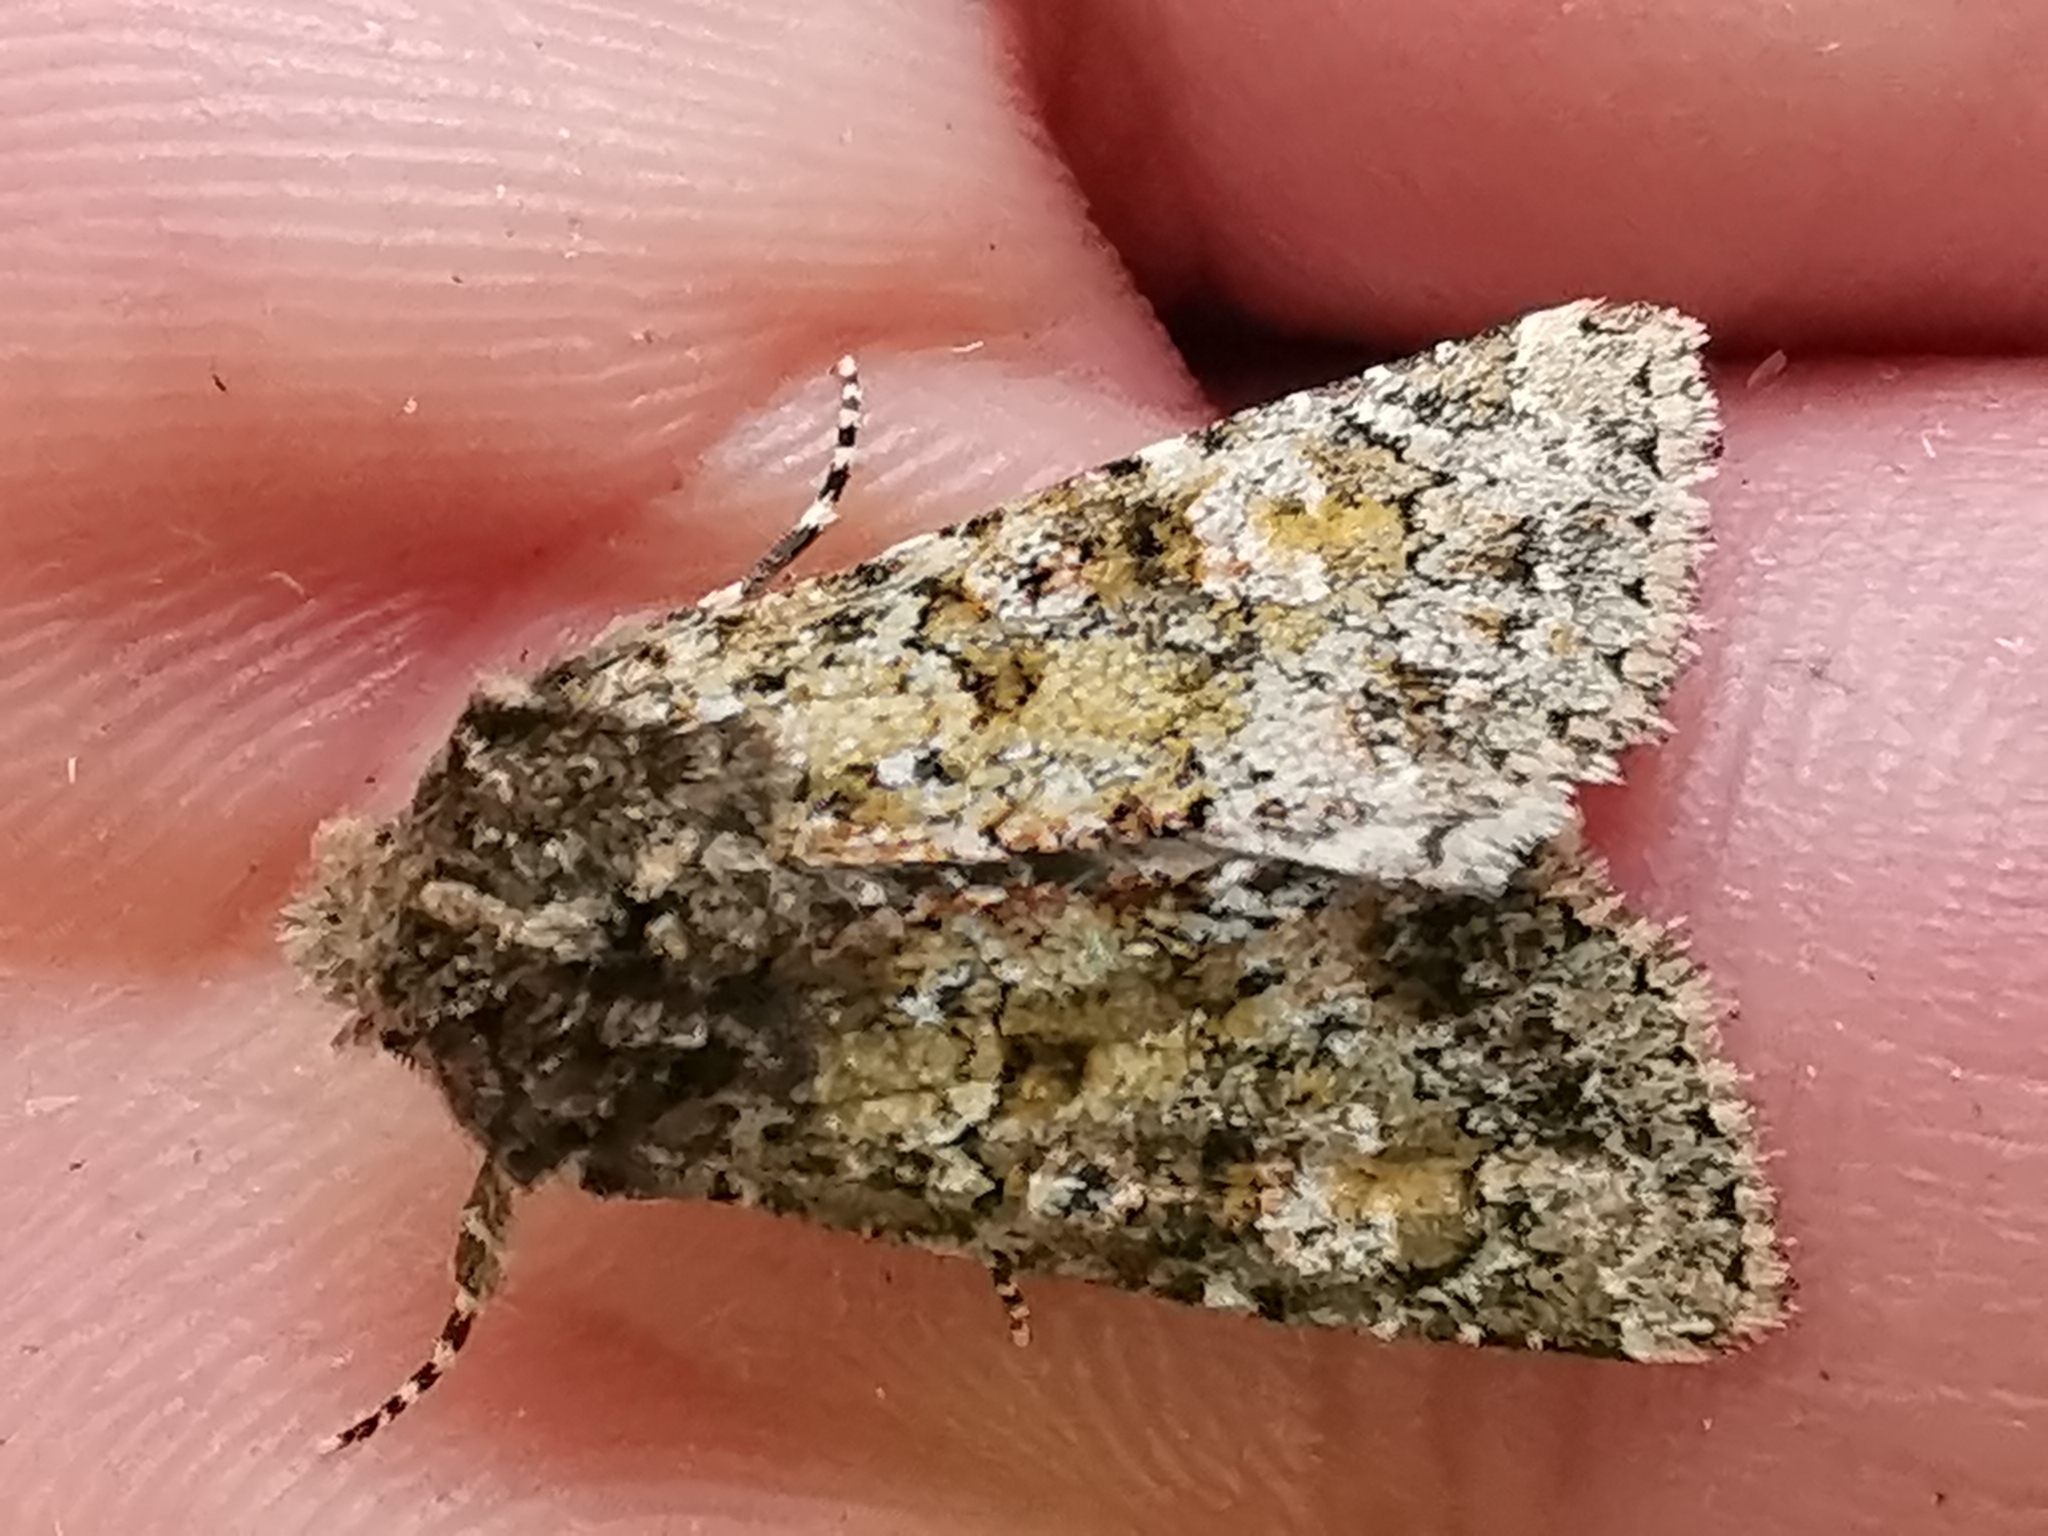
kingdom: Animalia
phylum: Arthropoda
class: Insecta
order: Lepidoptera
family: Noctuidae
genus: Polymixis
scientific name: Polymixis lichenea
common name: Feathered ranunculus
